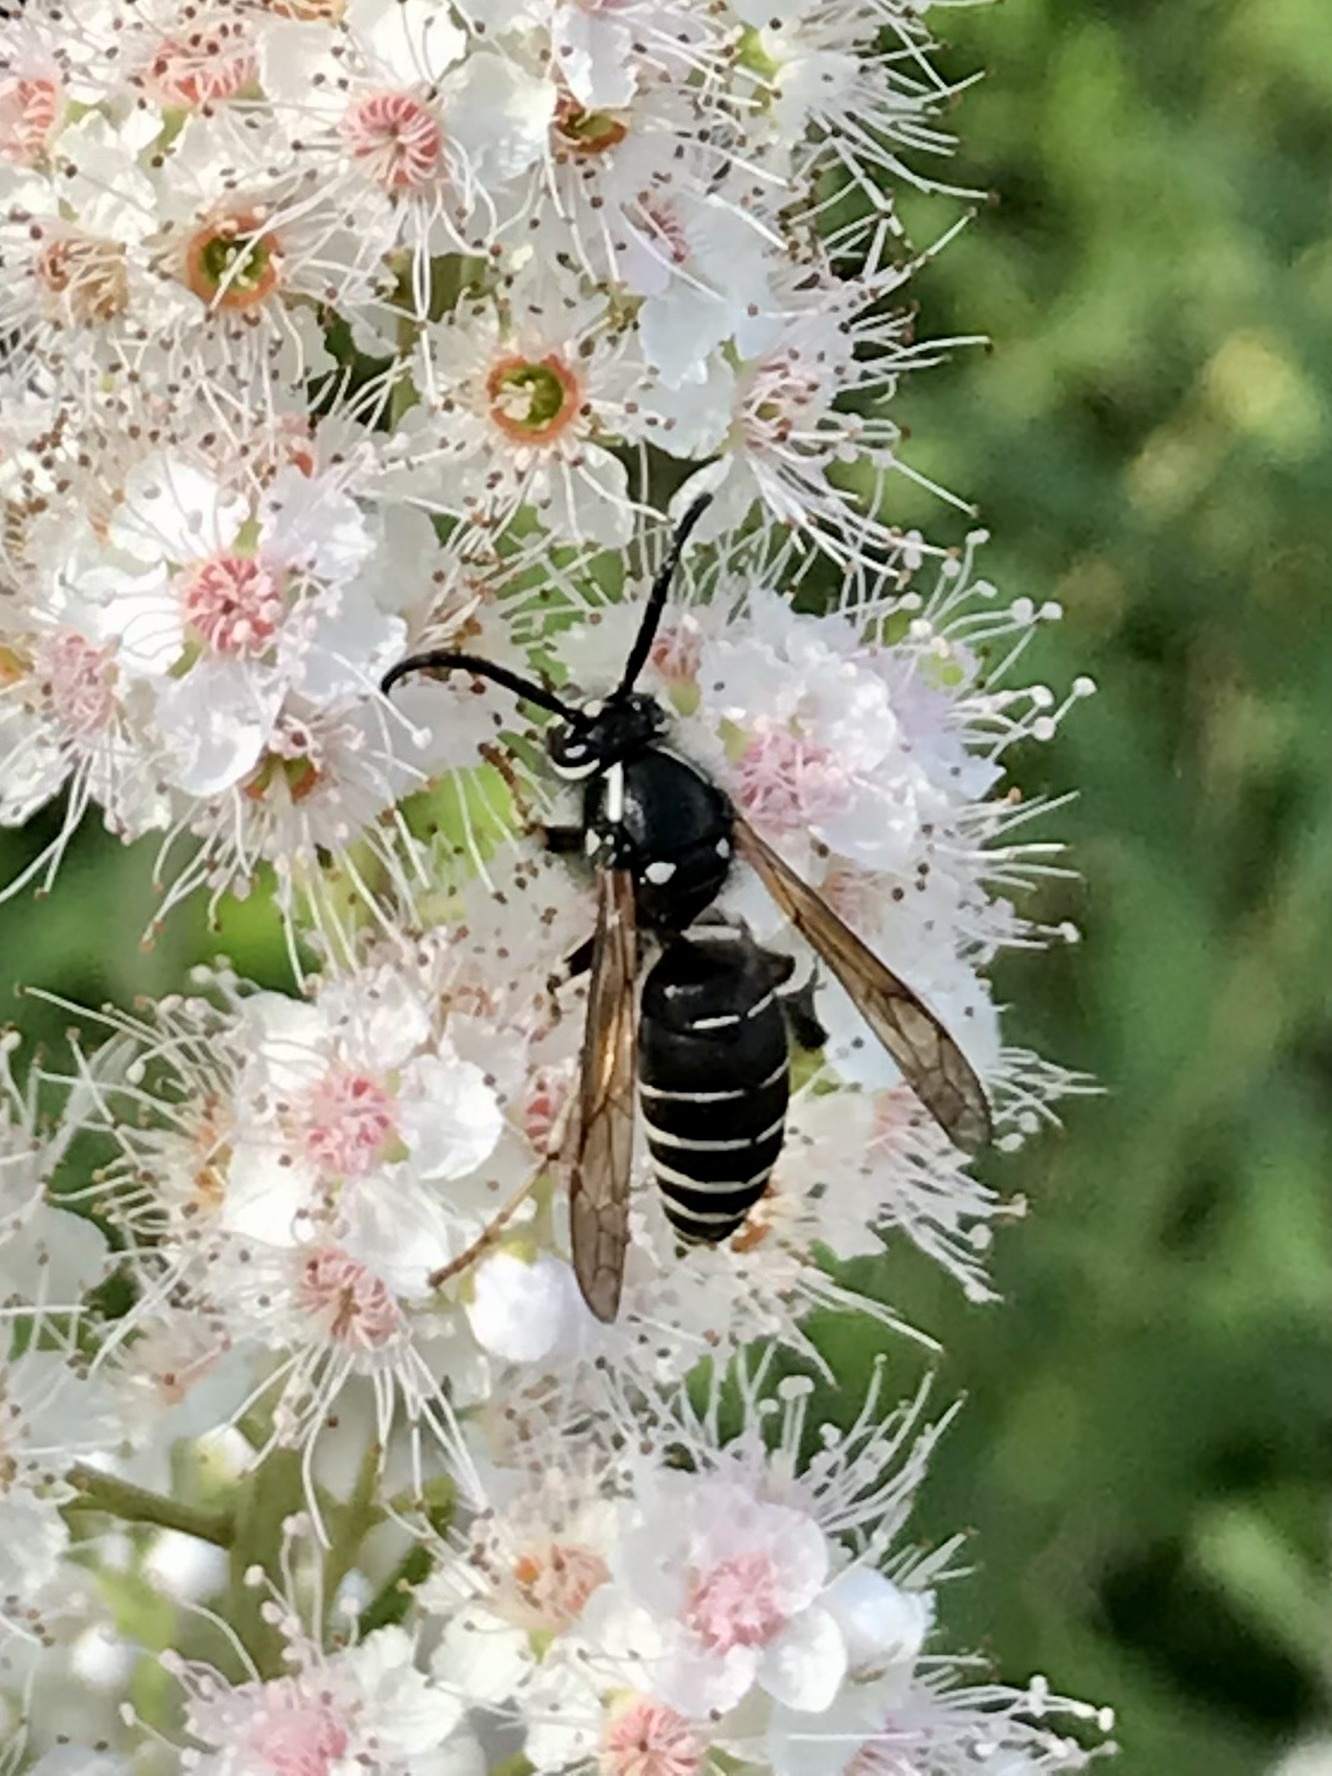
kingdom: Animalia
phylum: Arthropoda
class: Insecta
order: Hymenoptera
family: Vespidae
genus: Dolichovespula
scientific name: Dolichovespula adulterina
